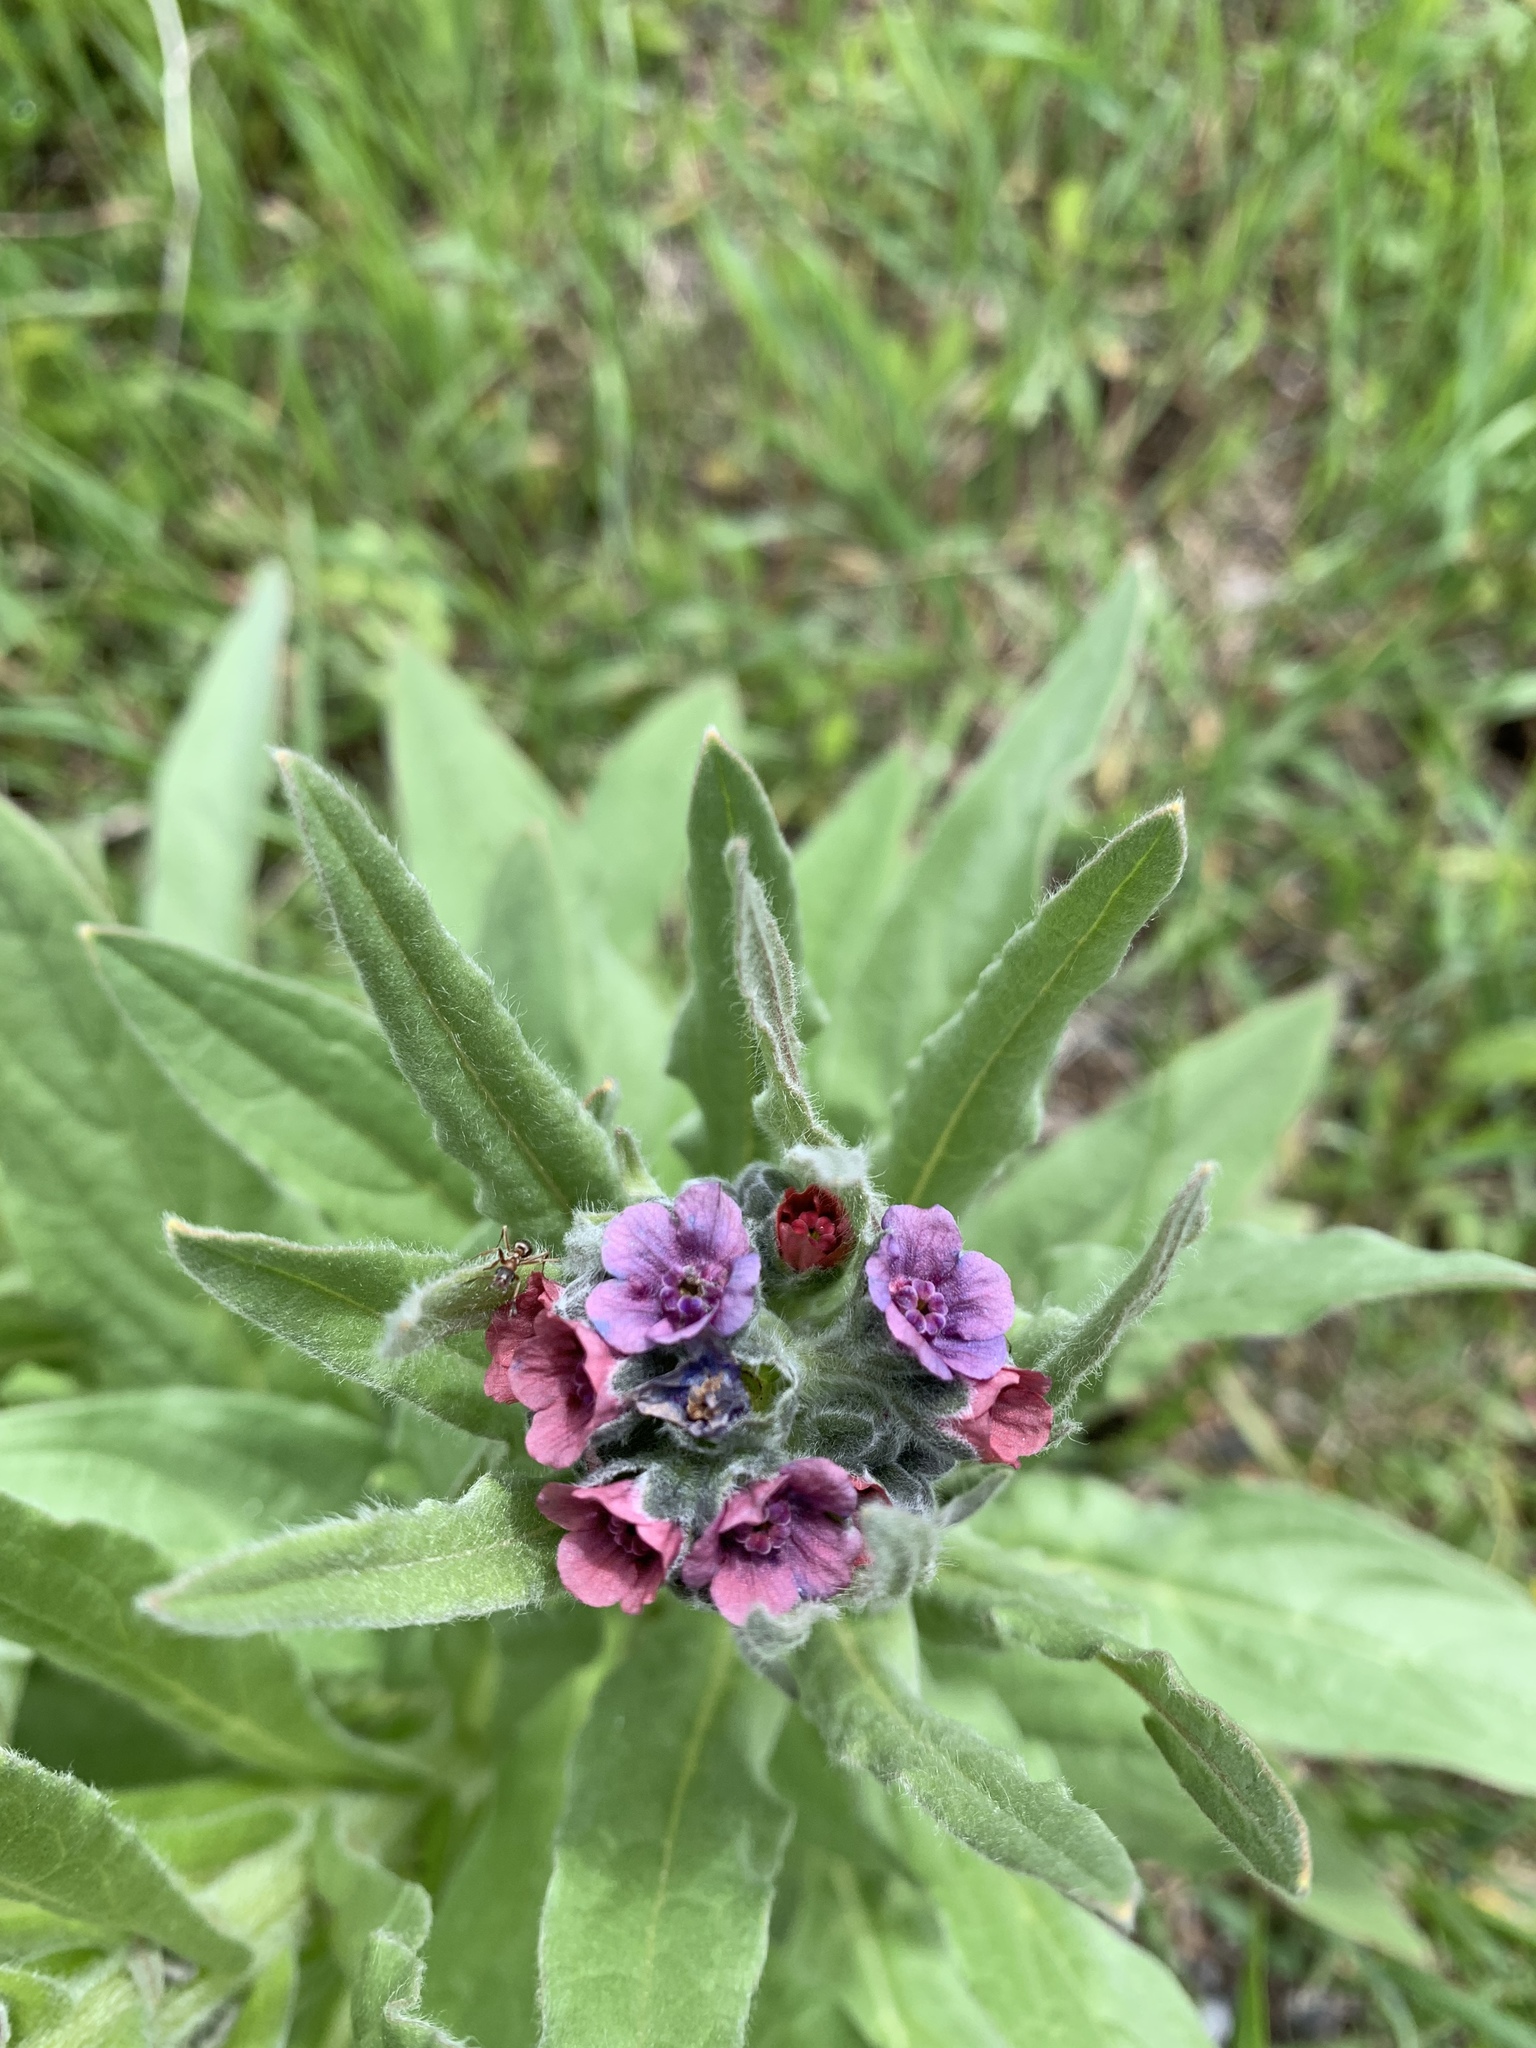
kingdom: Plantae
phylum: Tracheophyta
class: Magnoliopsida
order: Boraginales
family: Boraginaceae
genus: Cynoglossum
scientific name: Cynoglossum officinale
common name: Hound's-tongue
